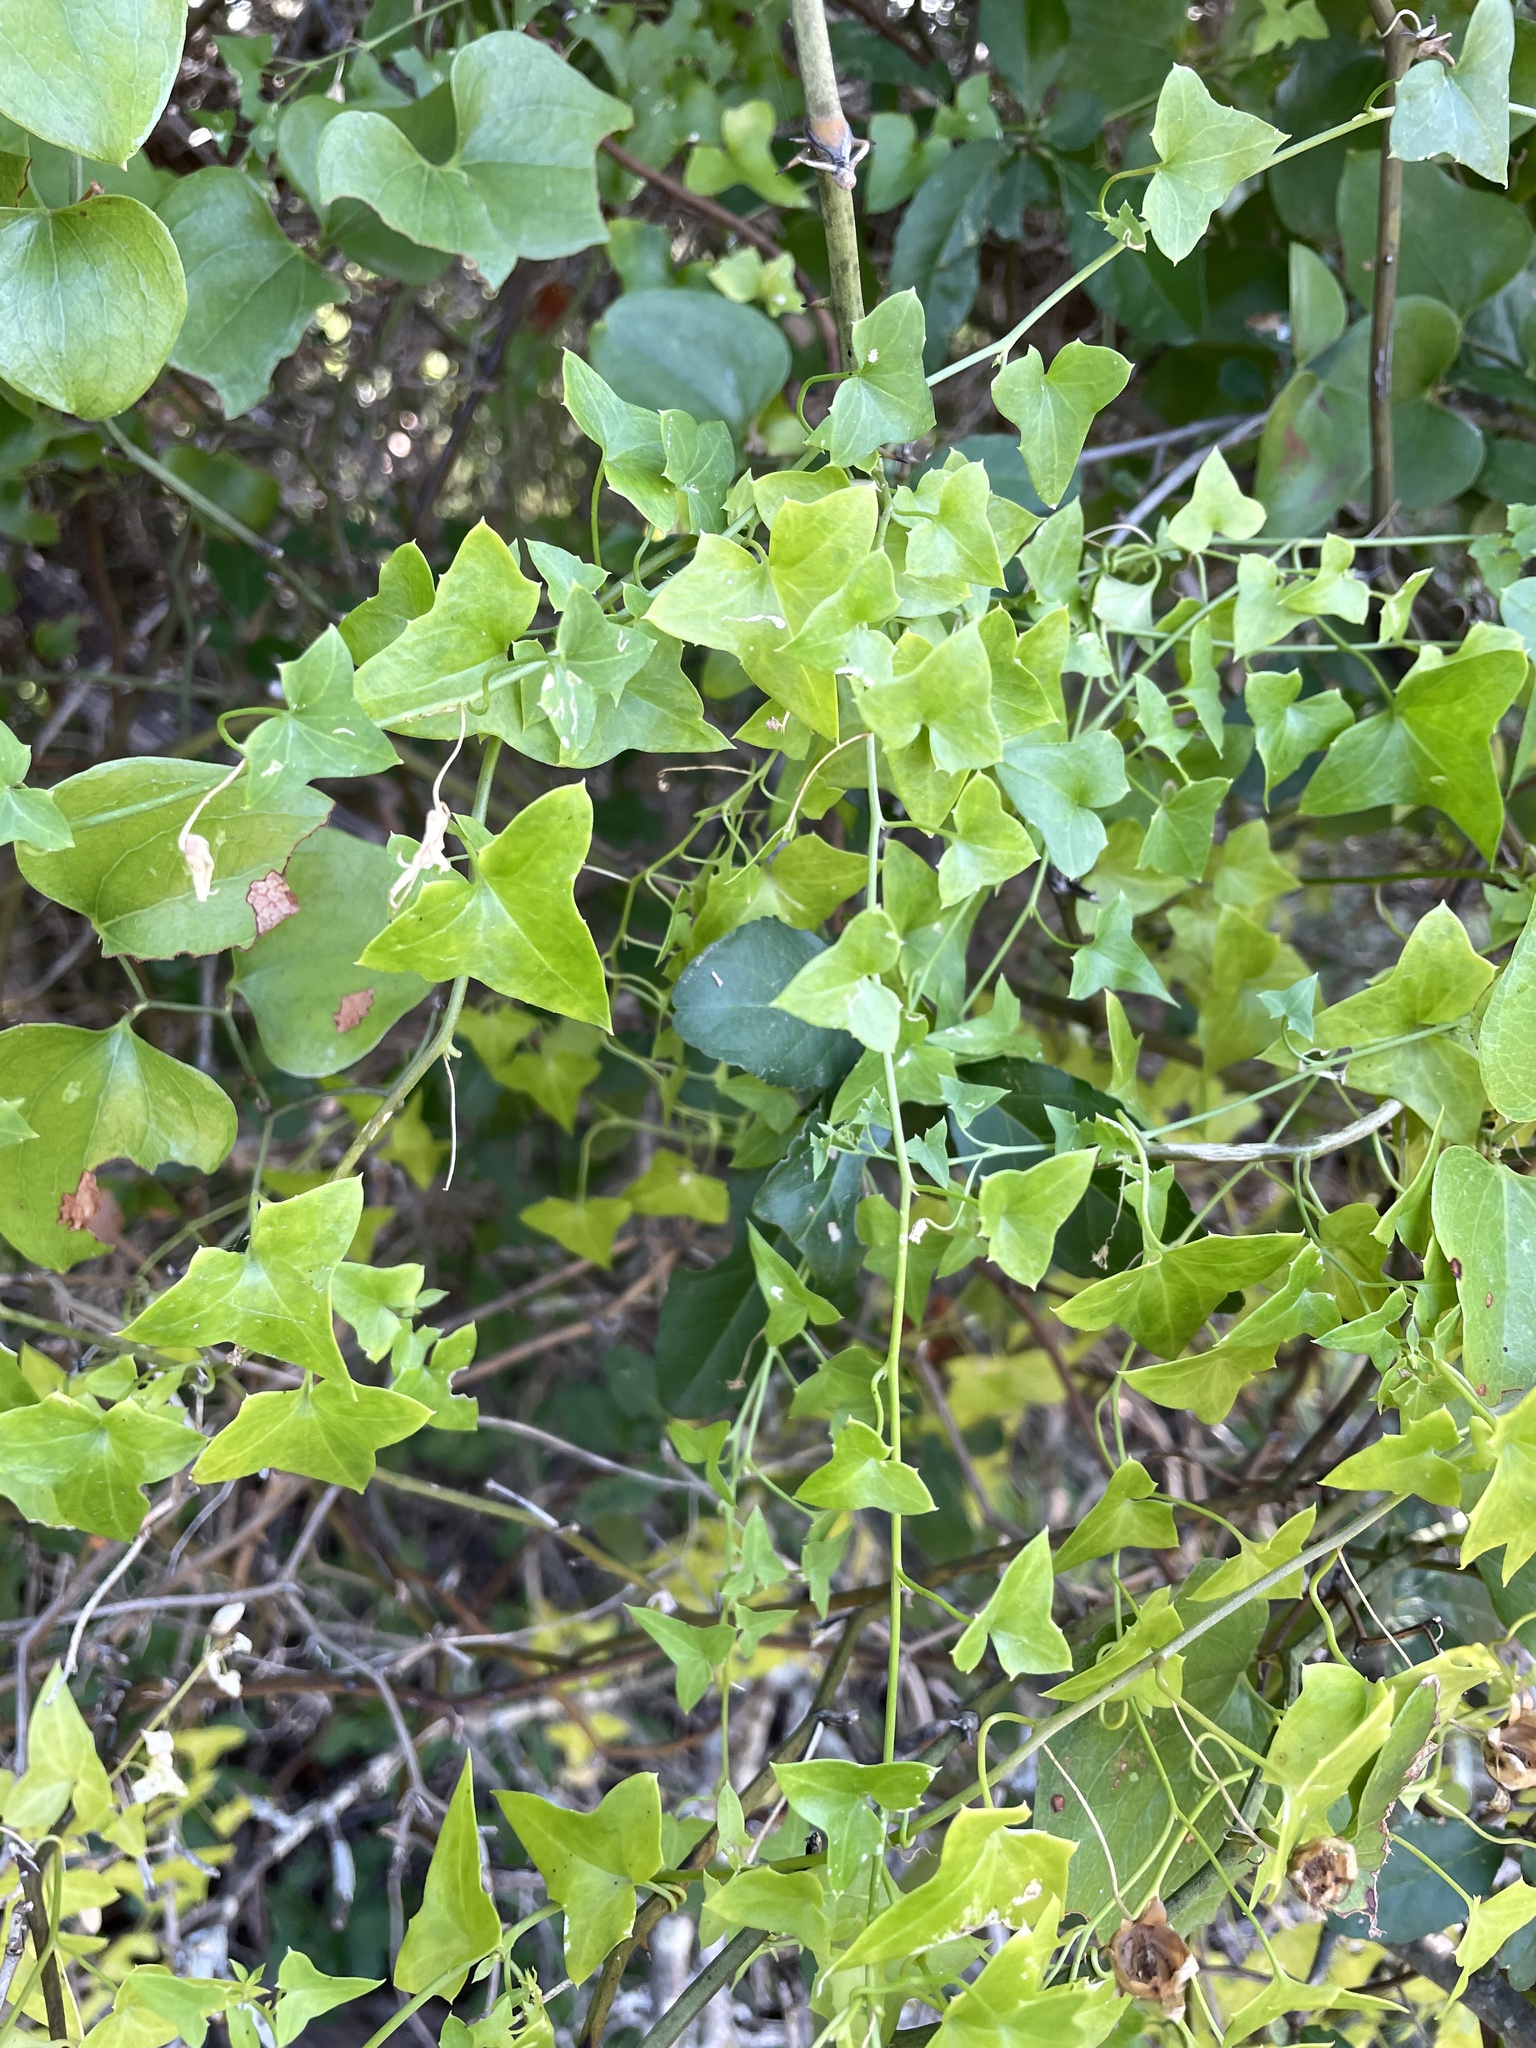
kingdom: Plantae
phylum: Tracheophyta
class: Magnoliopsida
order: Lamiales
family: Plantaginaceae
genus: Maurandella
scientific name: Maurandella antirrhiniflora
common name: Violet twining-snapdragon
